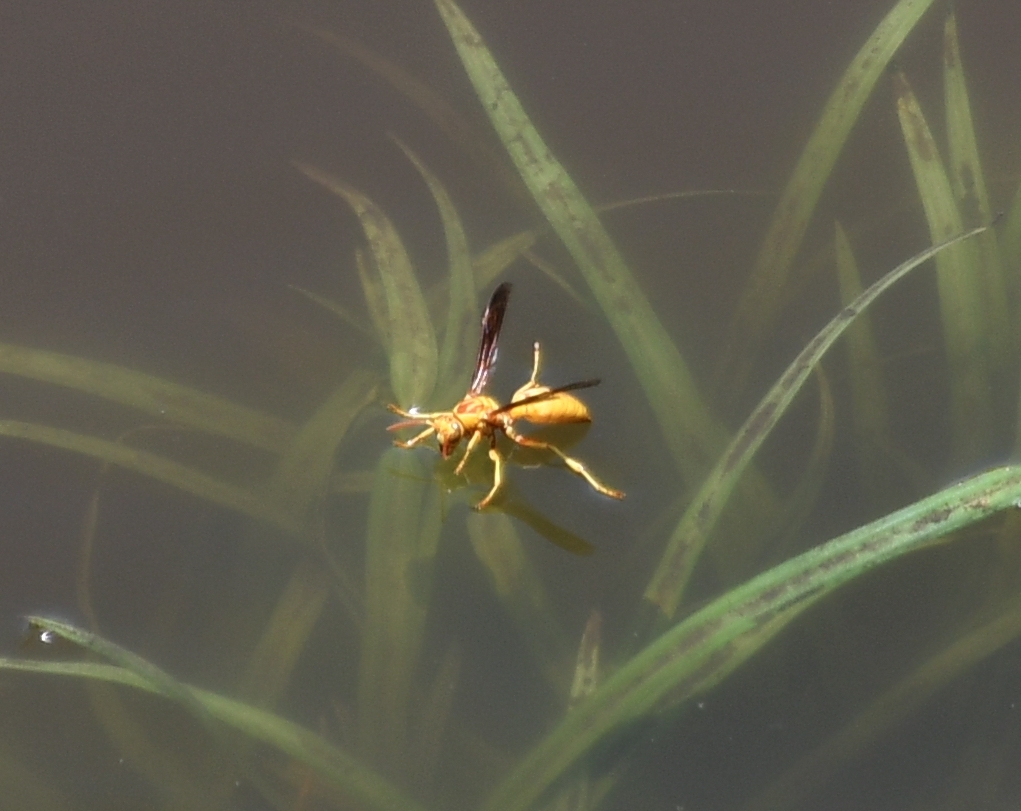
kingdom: Animalia
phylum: Arthropoda
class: Insecta
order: Hymenoptera
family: Eumenidae
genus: Polistes
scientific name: Polistes aurifer
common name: Paper wasp
